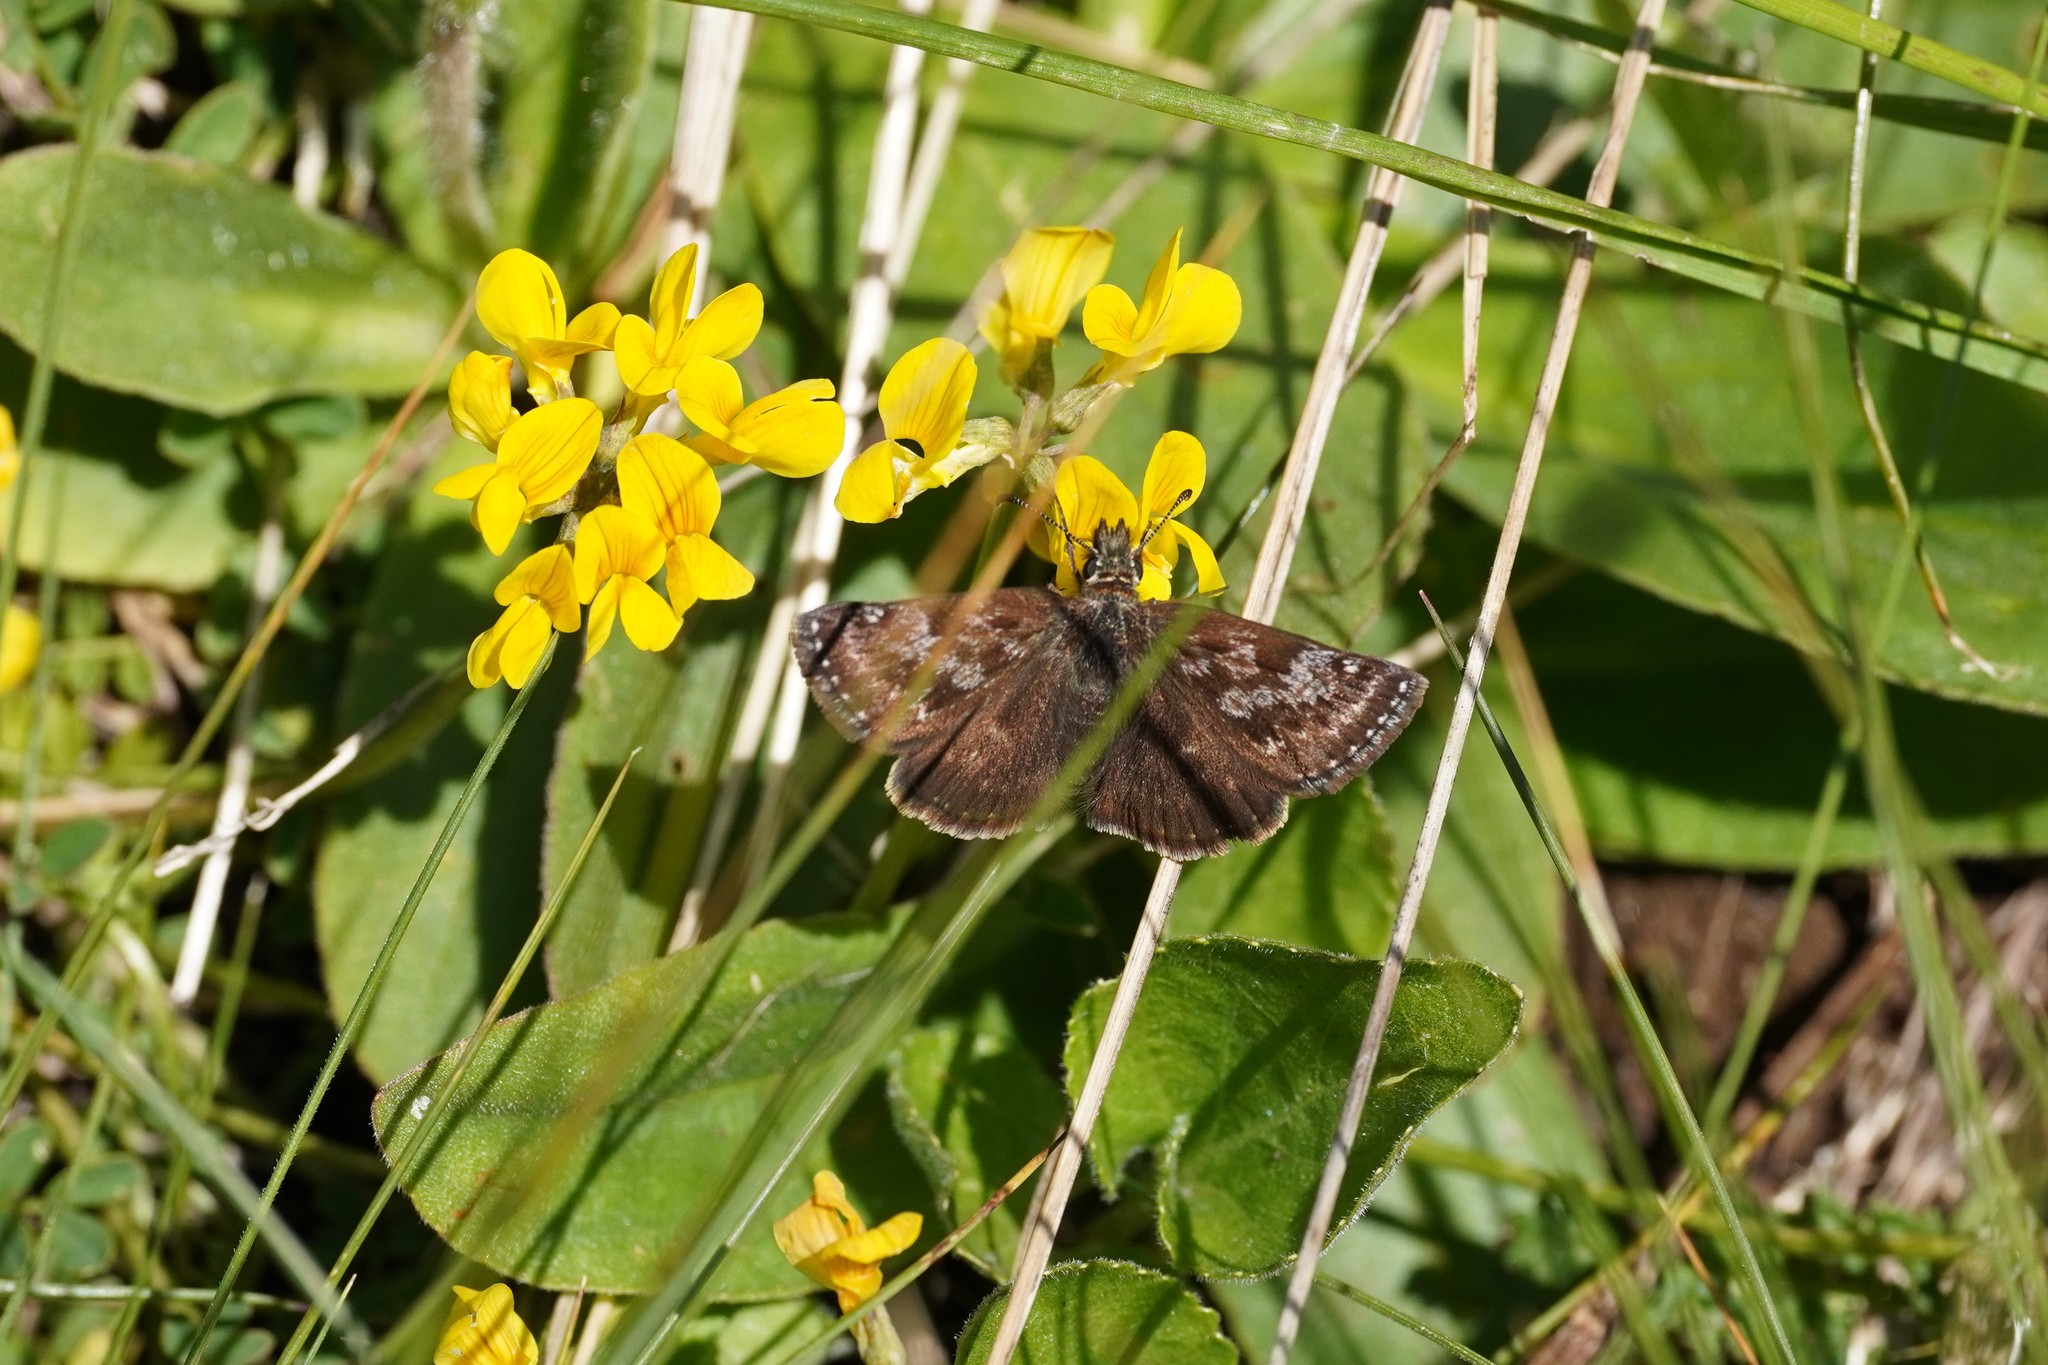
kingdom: Animalia
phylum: Arthropoda
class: Insecta
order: Lepidoptera
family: Hesperiidae
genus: Erynnis
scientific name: Erynnis tages
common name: Dingy skipper
